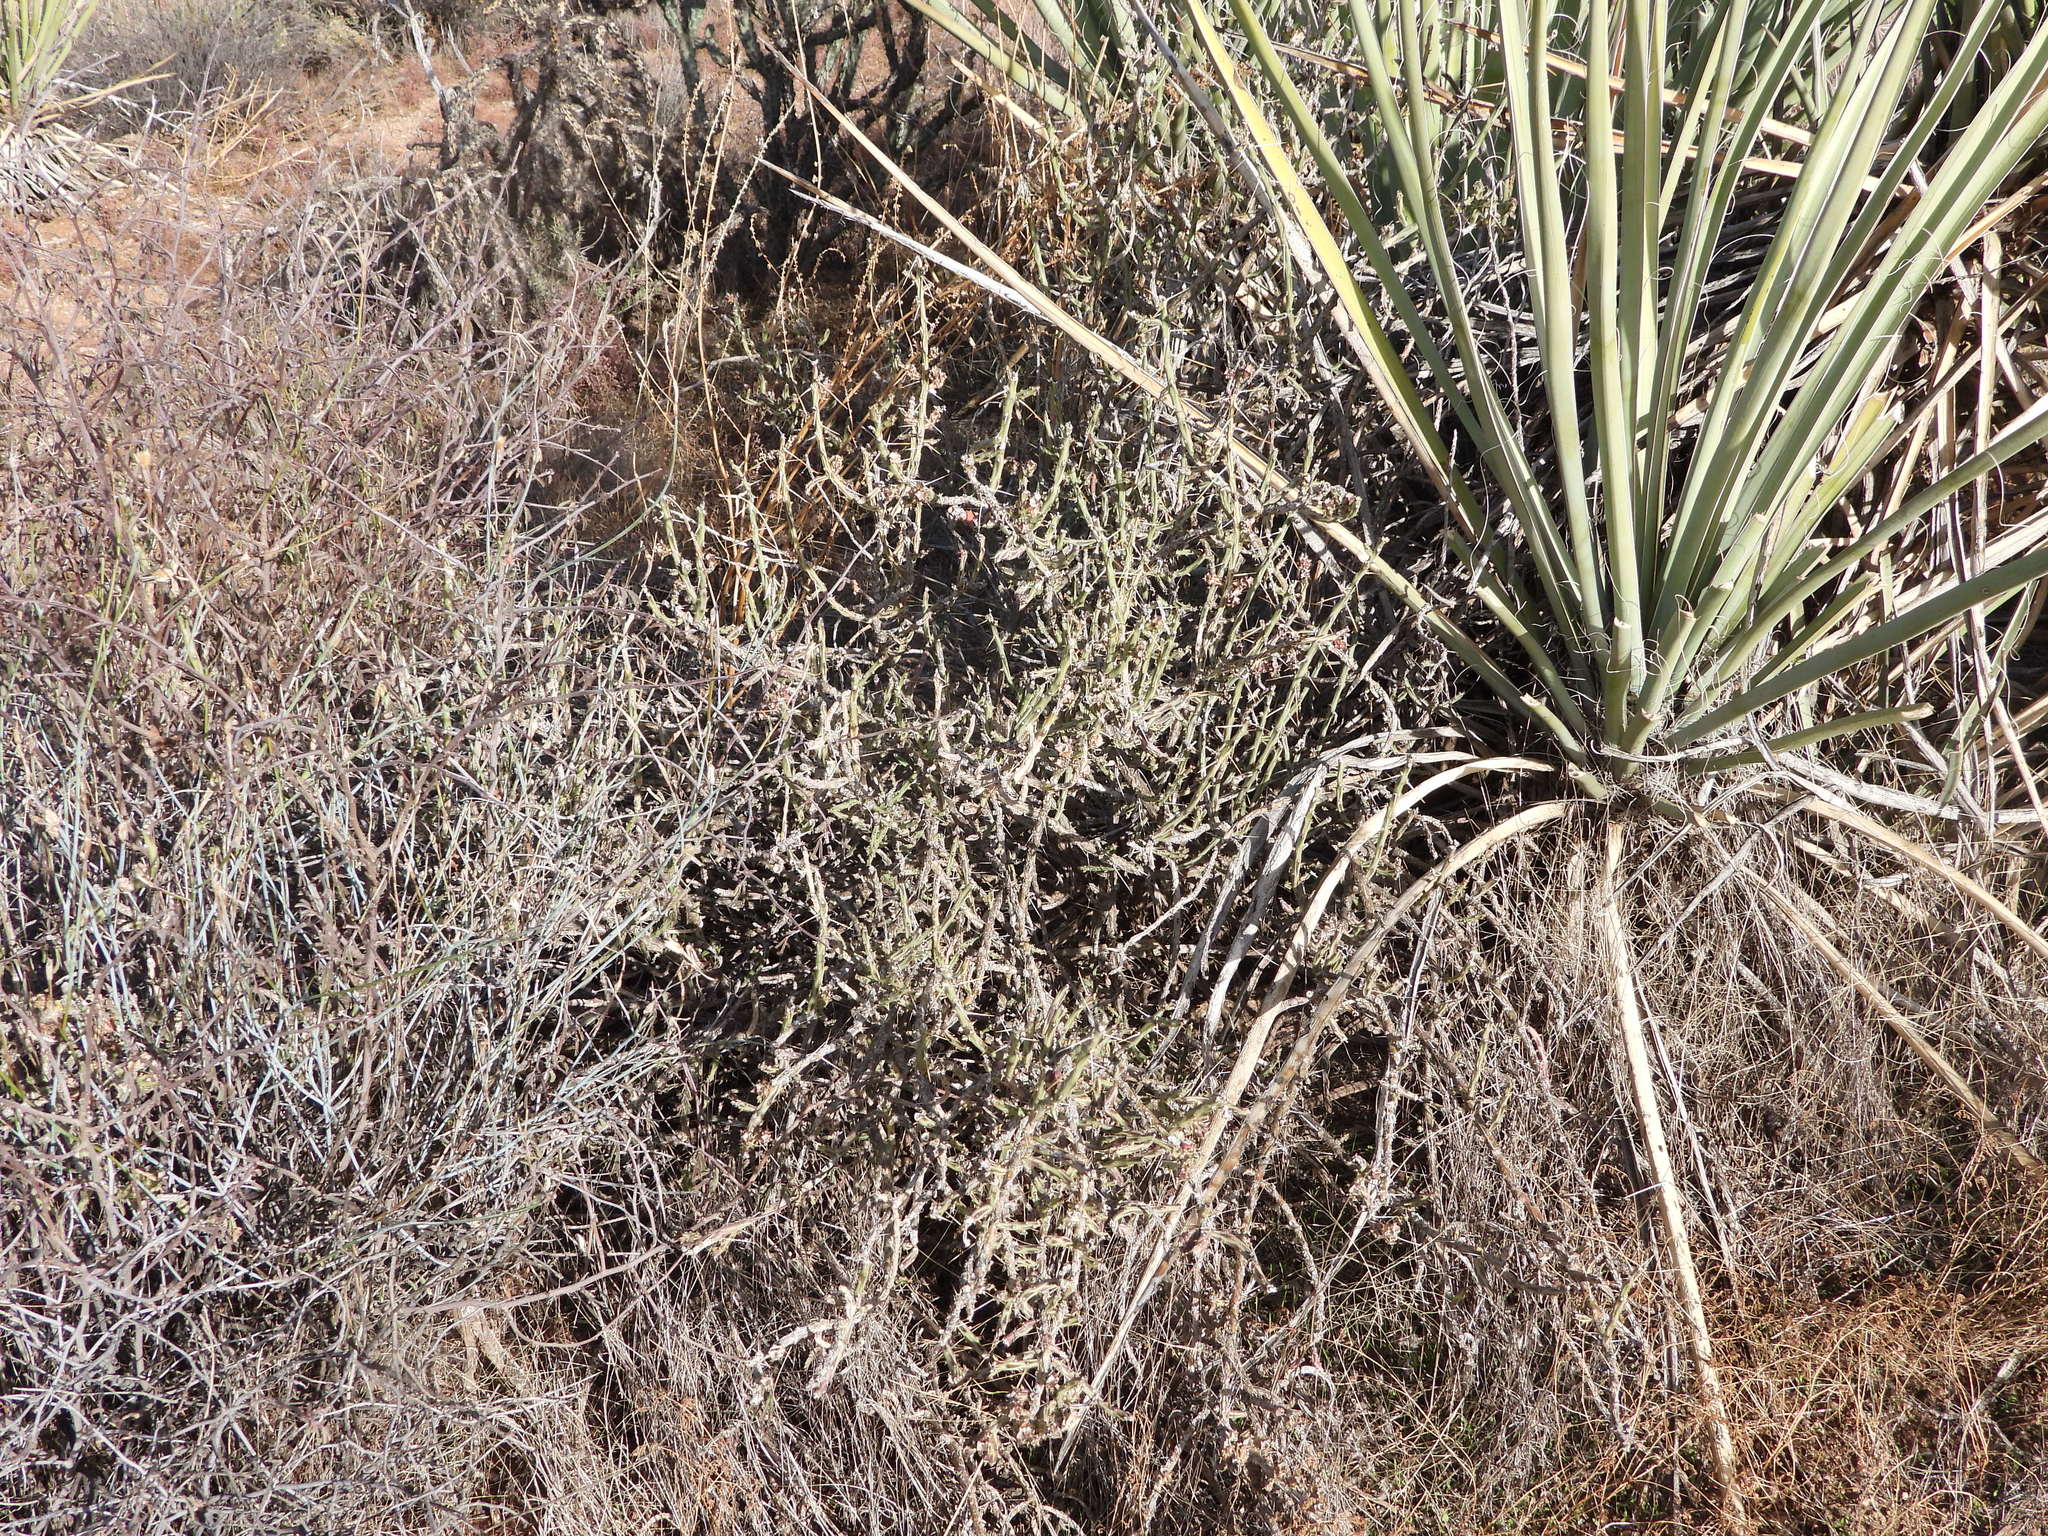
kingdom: Plantae
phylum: Tracheophyta
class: Magnoliopsida
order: Caryophyllales
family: Cactaceae
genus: Cylindropuntia
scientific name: Cylindropuntia leptocaulis
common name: Christmas cactus
